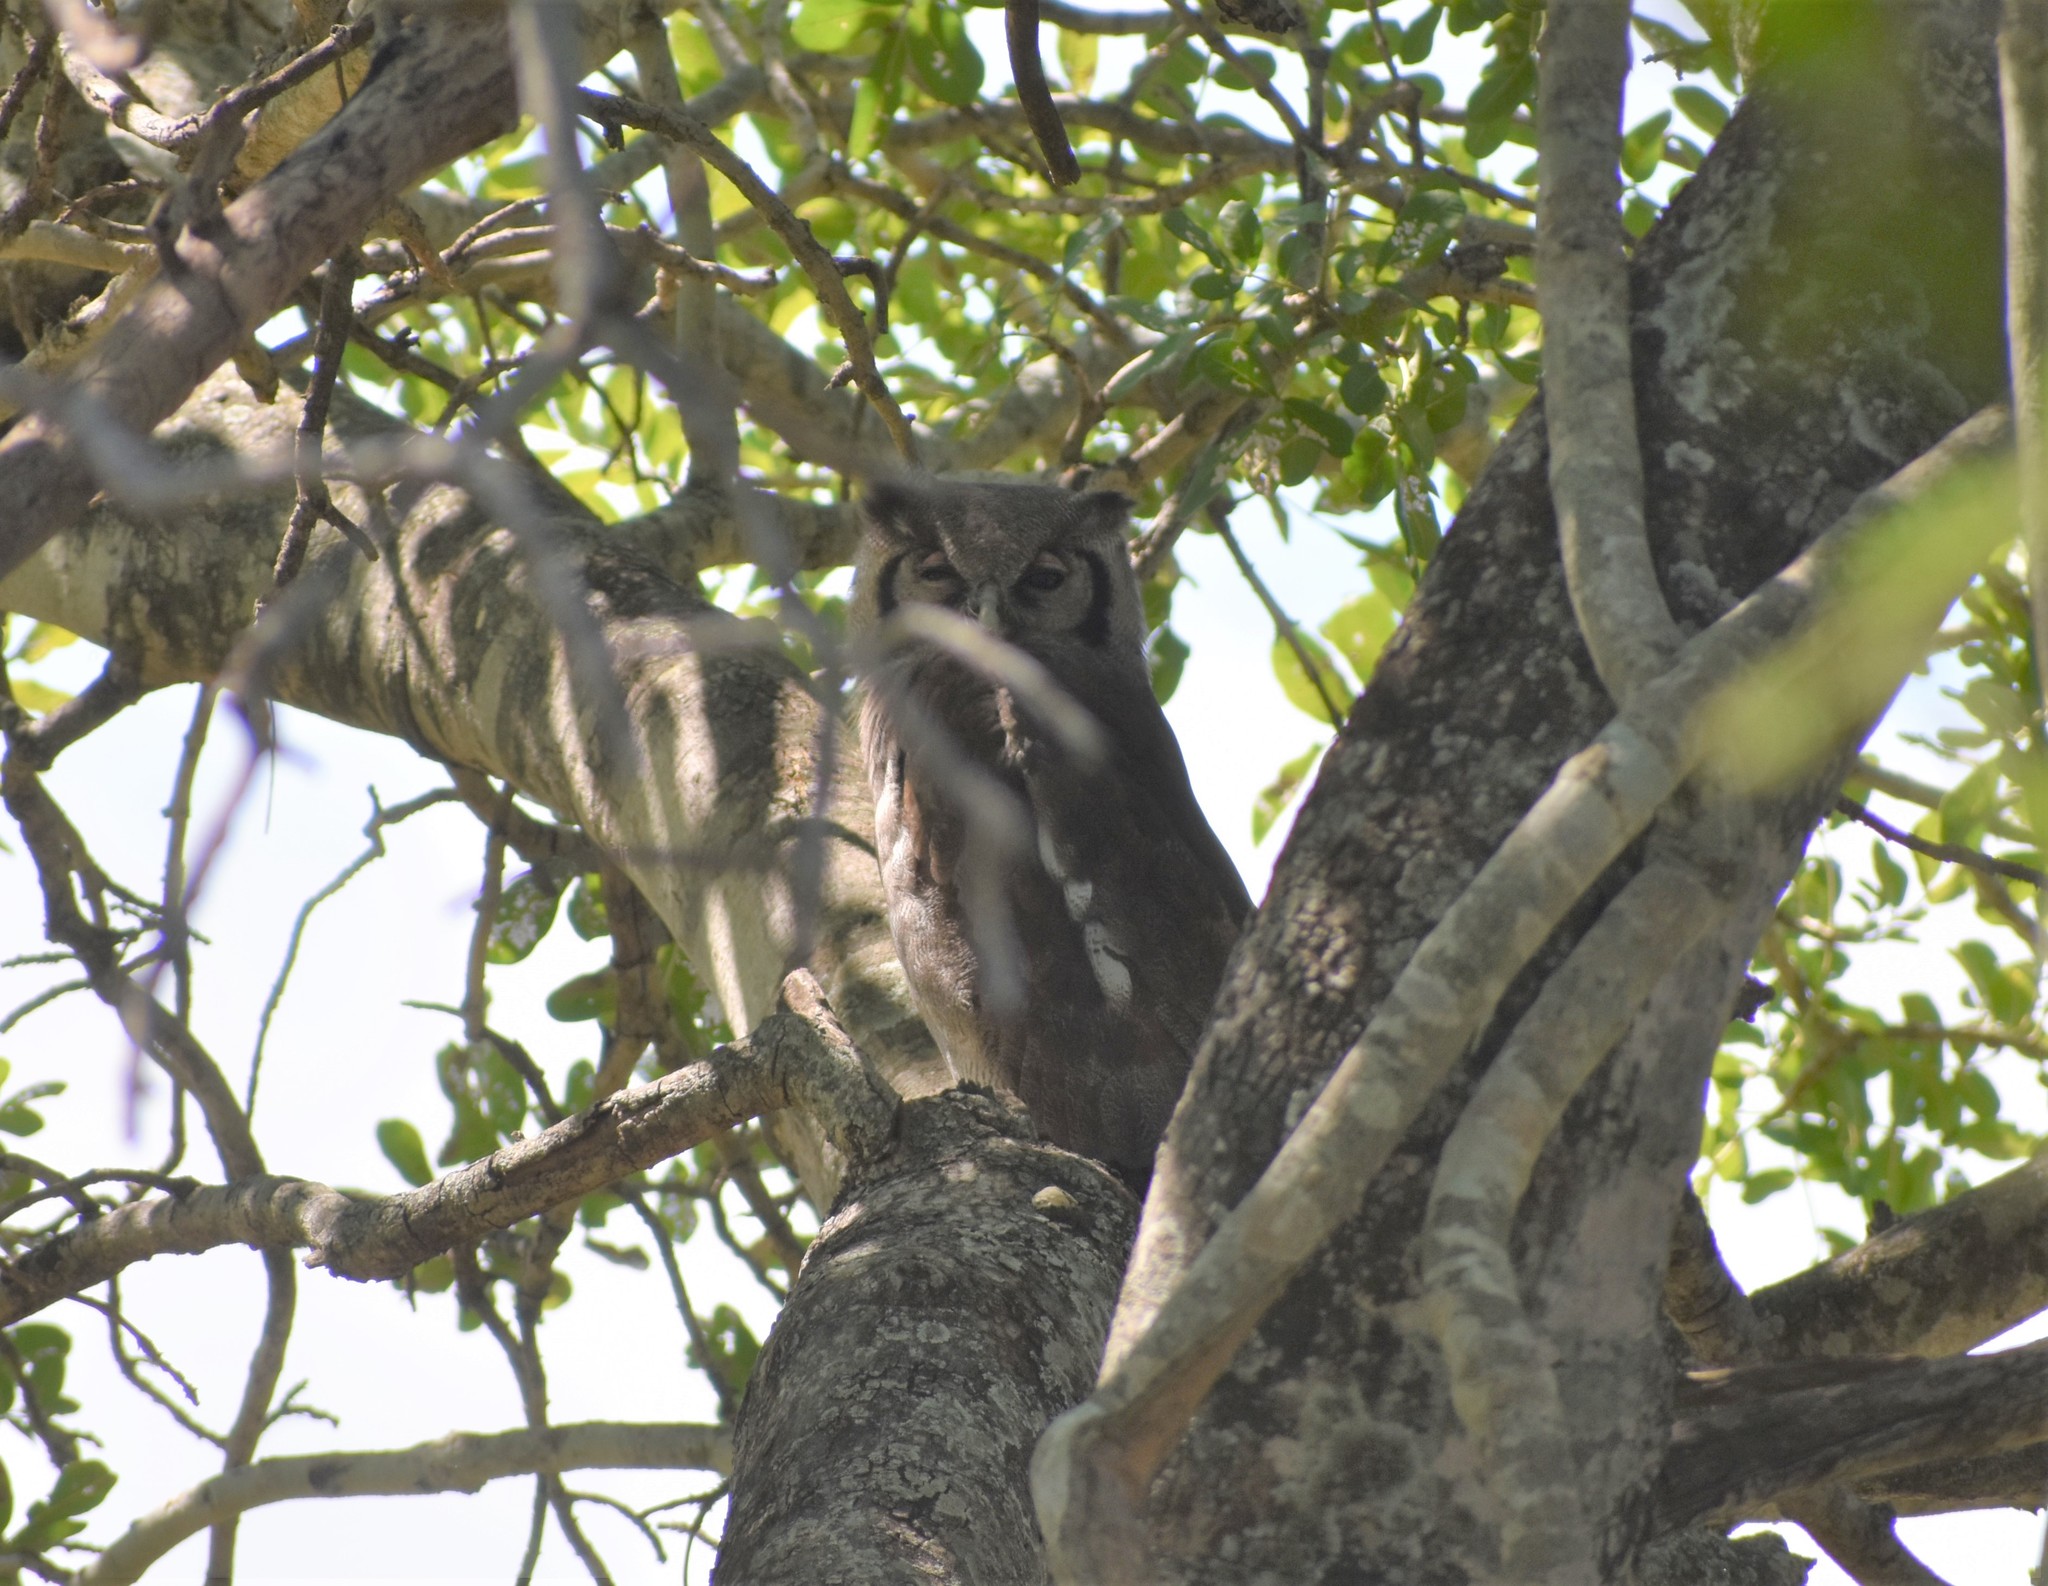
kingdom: Animalia
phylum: Chordata
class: Aves
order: Strigiformes
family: Strigidae
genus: Bubo
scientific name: Bubo lacteus
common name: Verreaux's eagle-owl
